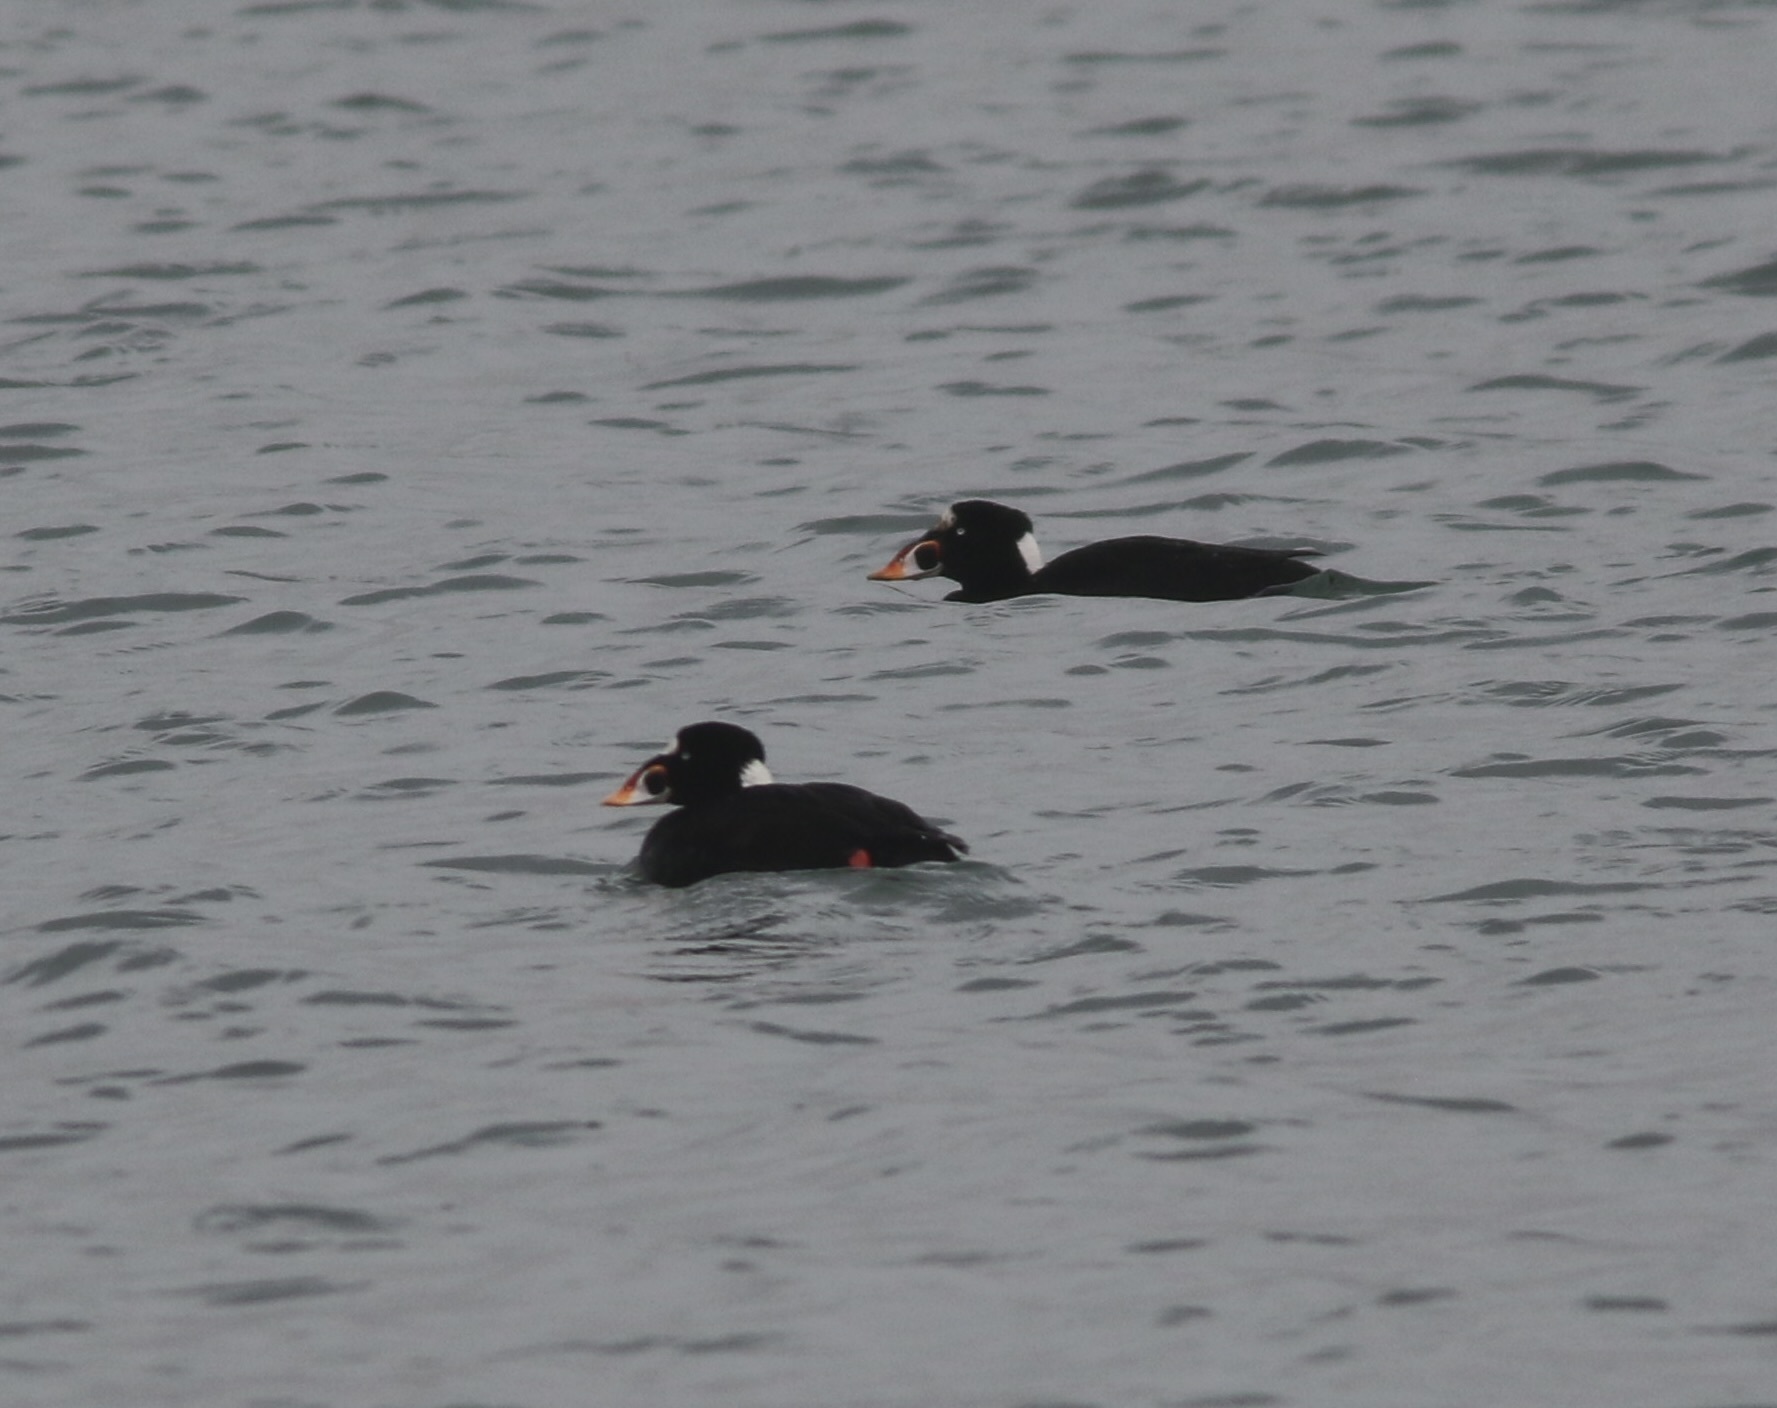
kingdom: Animalia
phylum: Chordata
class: Aves
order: Anseriformes
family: Anatidae
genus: Melanitta
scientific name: Melanitta perspicillata
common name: Surf scoter
